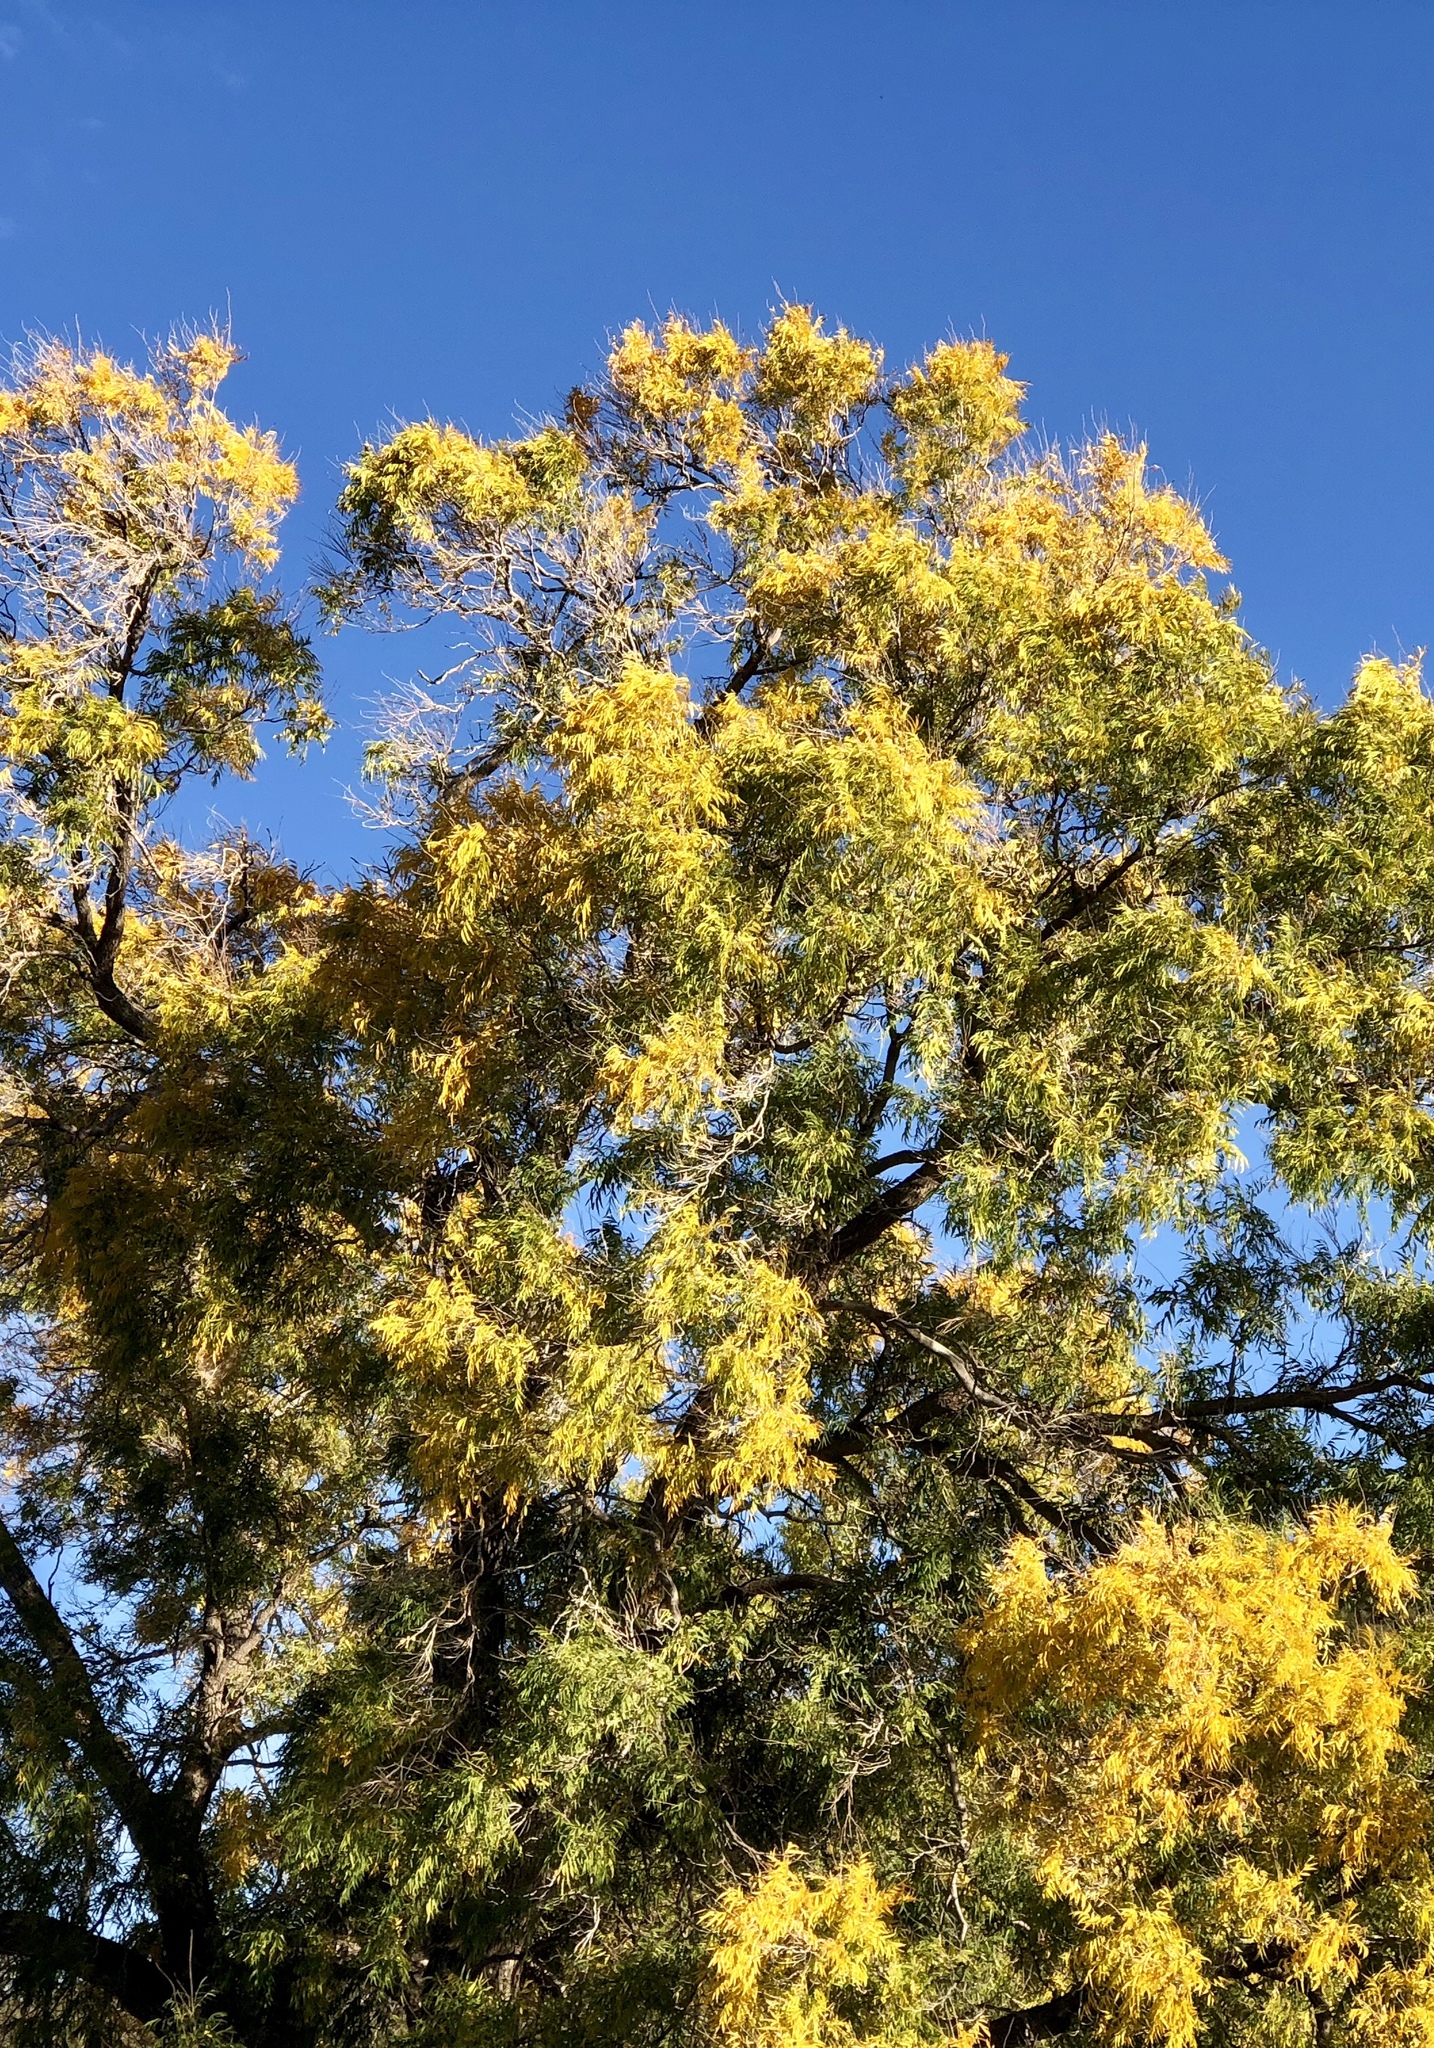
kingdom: Plantae
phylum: Tracheophyta
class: Magnoliopsida
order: Sapindales
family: Sapindaceae
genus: Sapindus
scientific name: Sapindus drummondii
